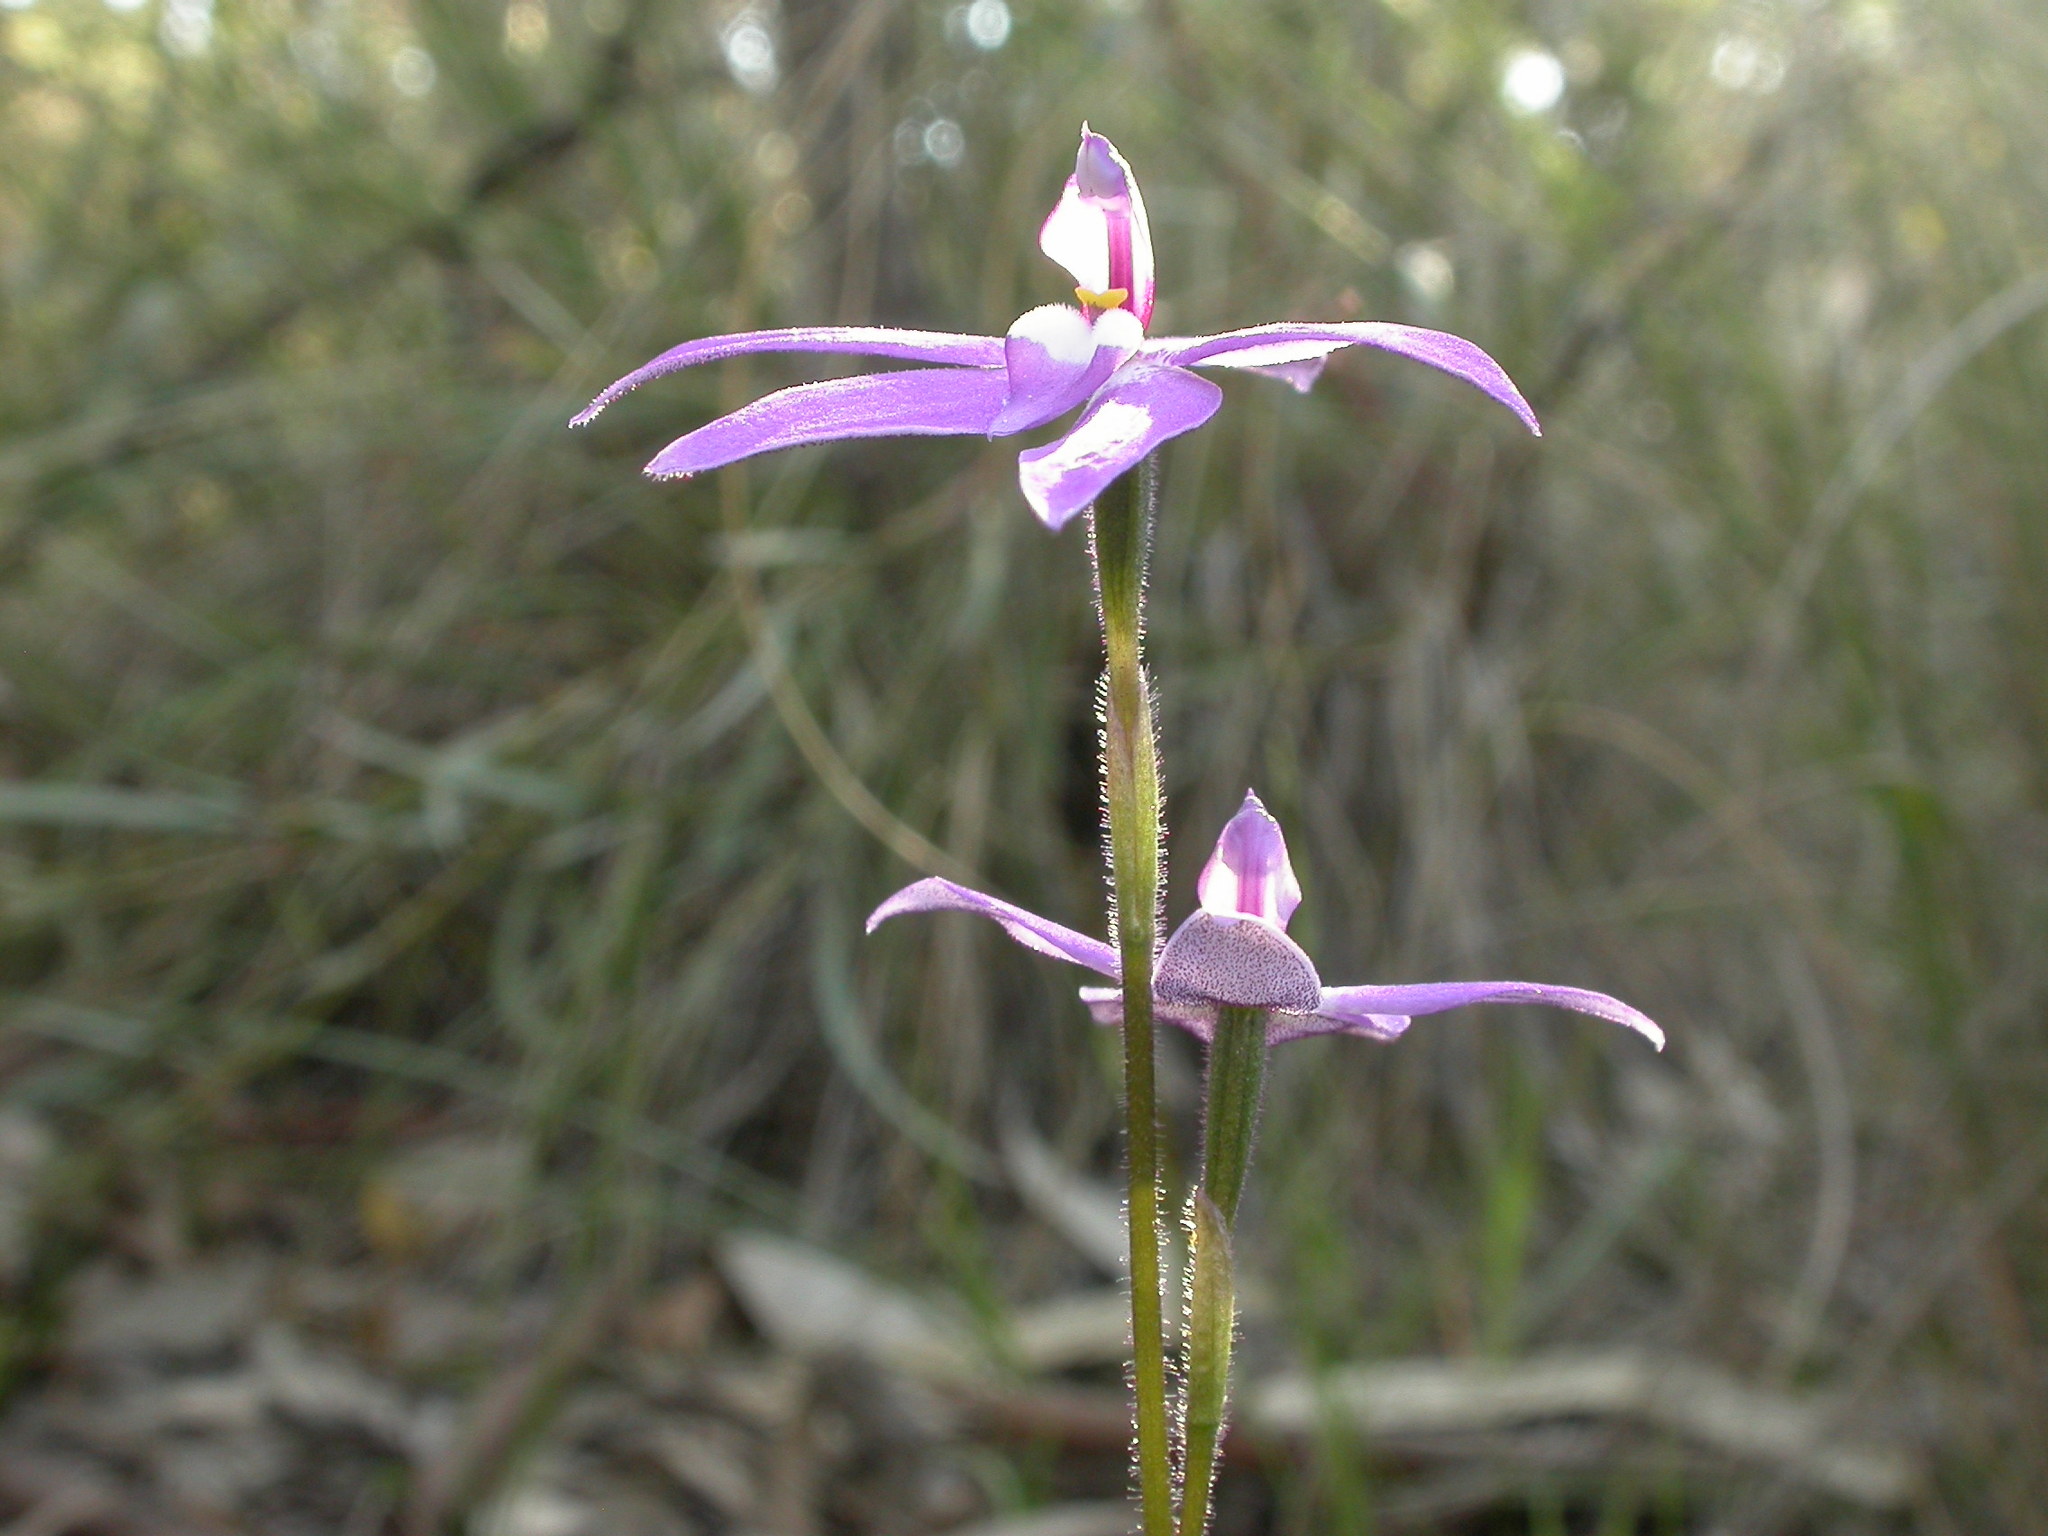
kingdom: Plantae
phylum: Tracheophyta
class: Liliopsida
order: Asparagales
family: Orchidaceae
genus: Caladenia
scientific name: Caladenia major
